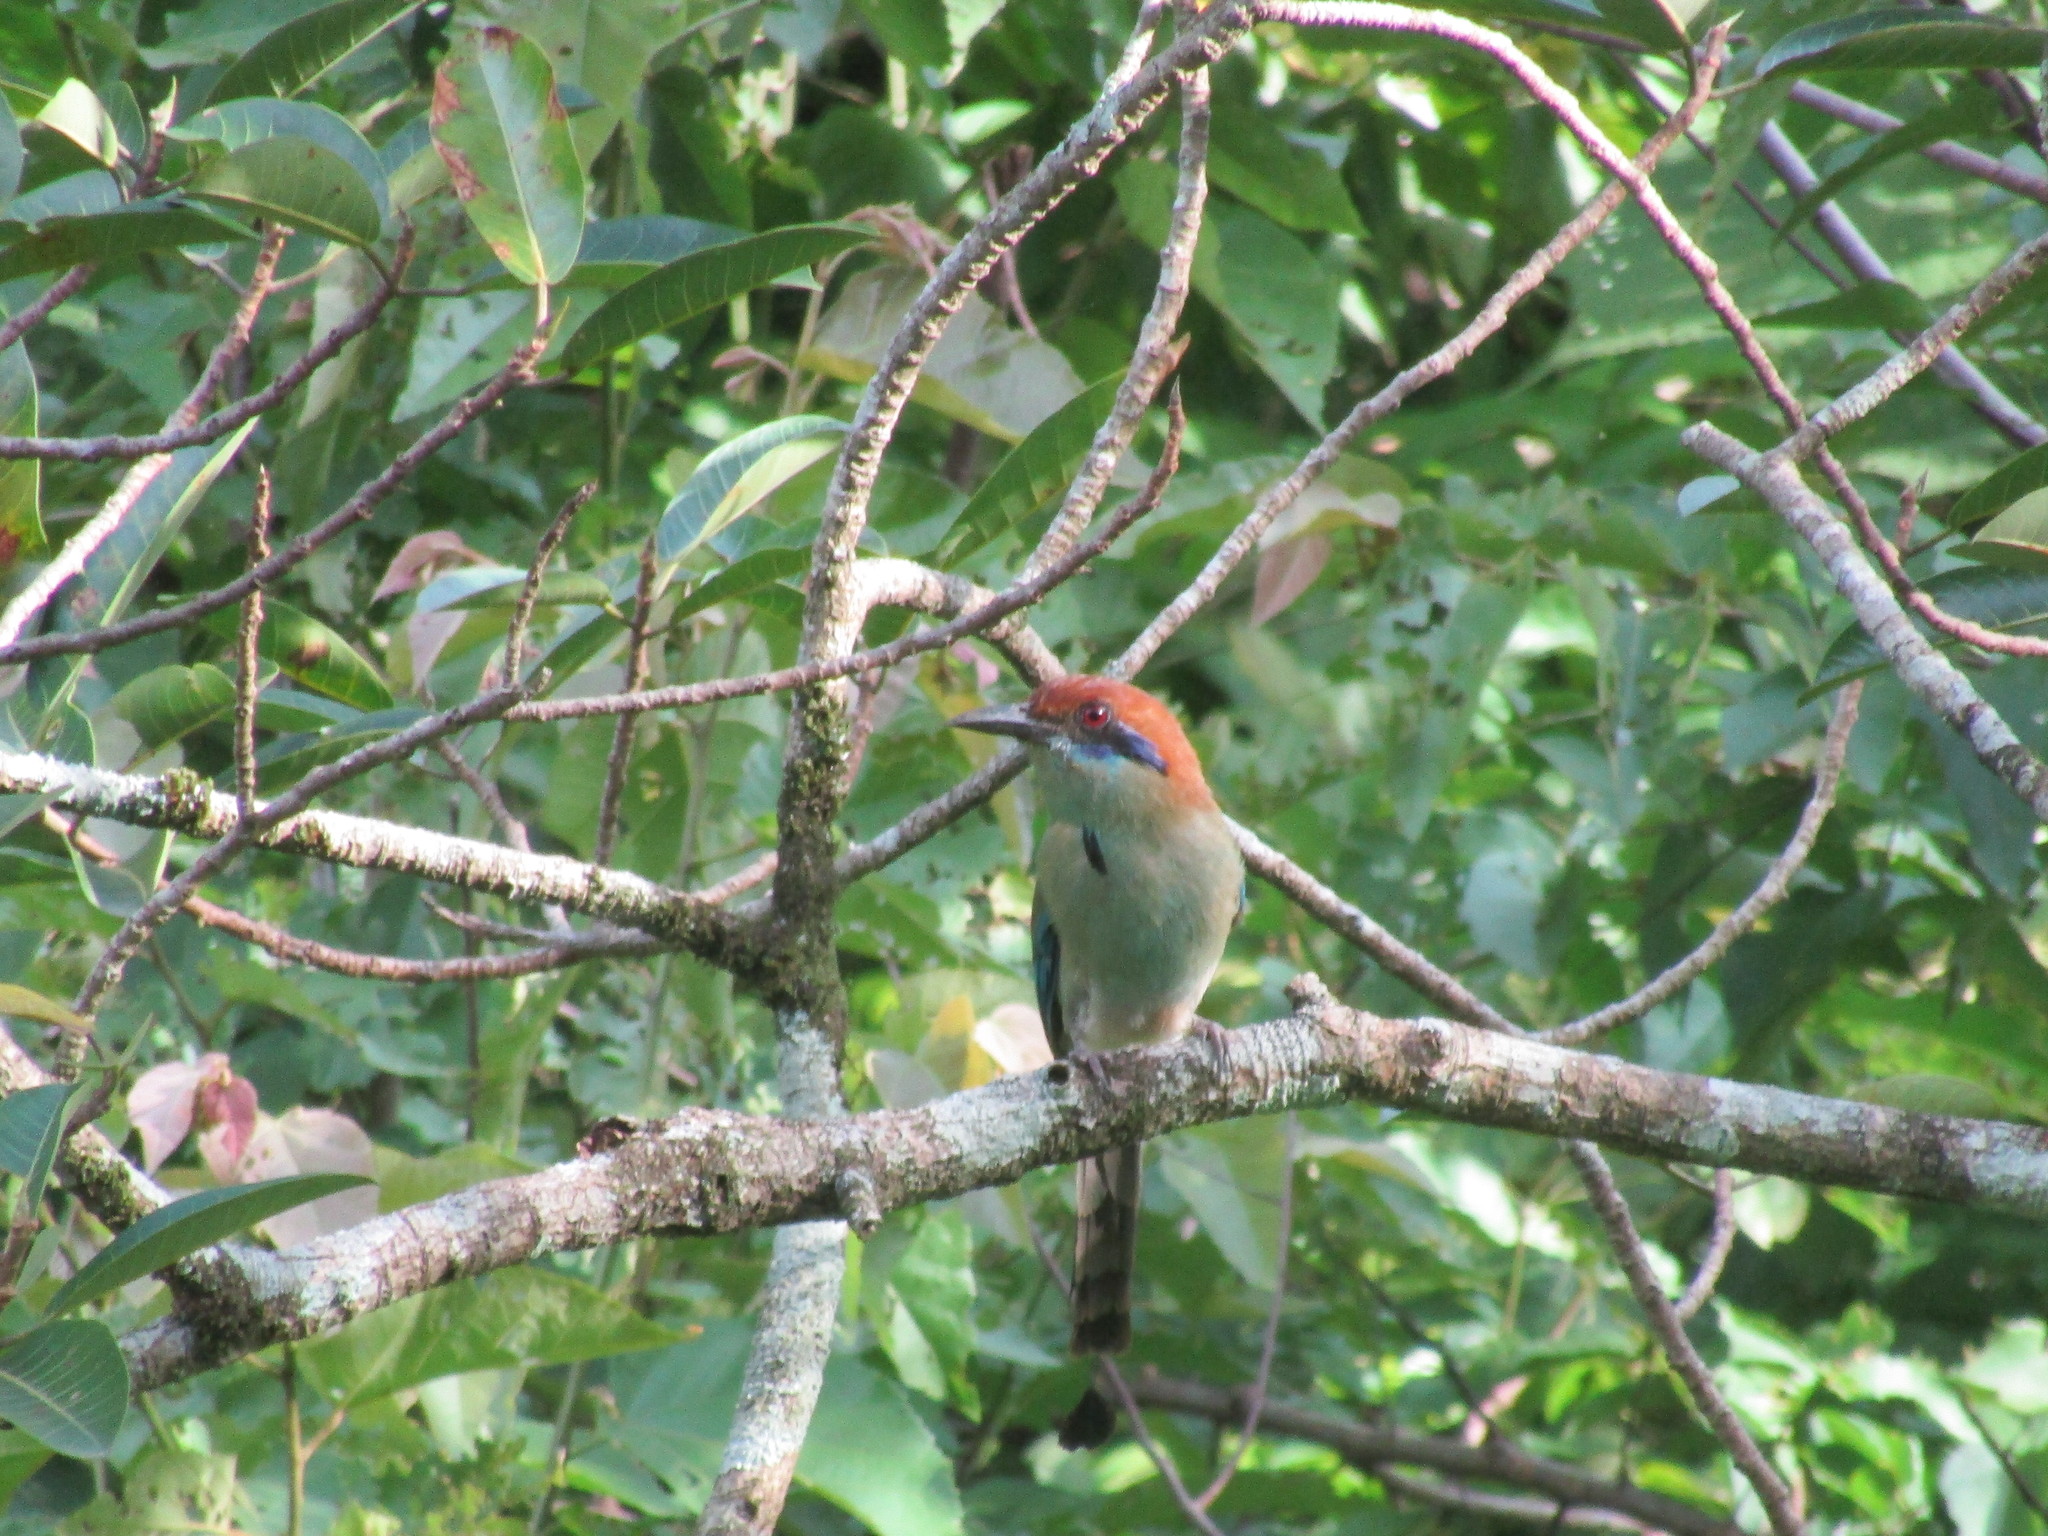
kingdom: Animalia
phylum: Chordata
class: Aves
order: Coraciiformes
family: Momotidae
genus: Momotus
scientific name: Momotus mexicanus
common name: Russet-crowned motmot
